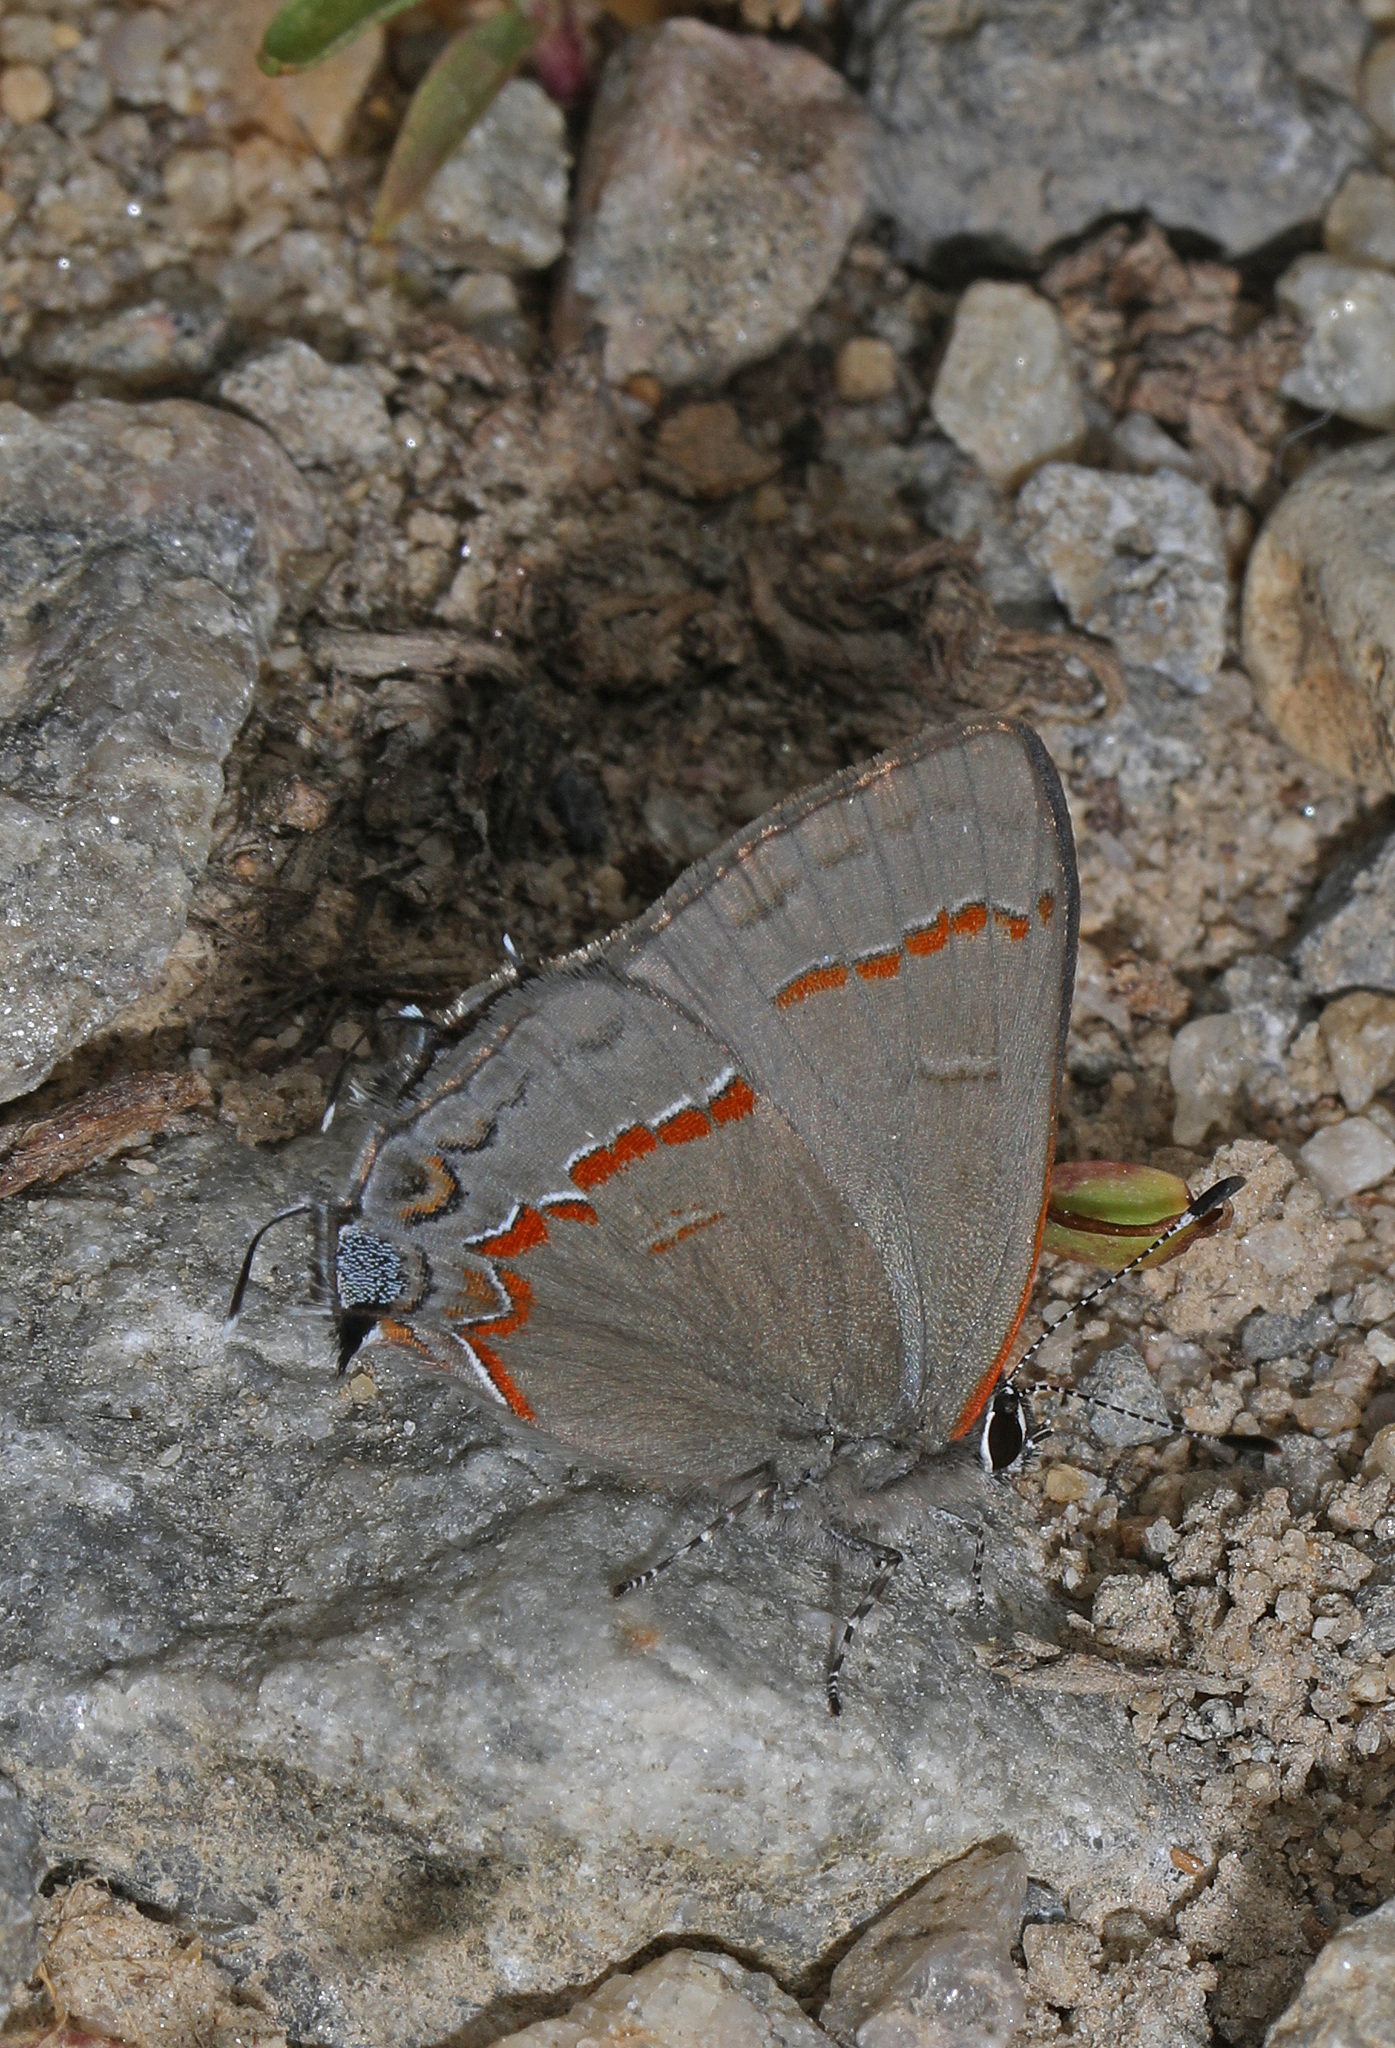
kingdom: Animalia
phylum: Arthropoda
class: Insecta
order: Lepidoptera
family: Lycaenidae
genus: Calycopis
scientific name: Calycopis cecrops
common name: Red-banded hairstreak
